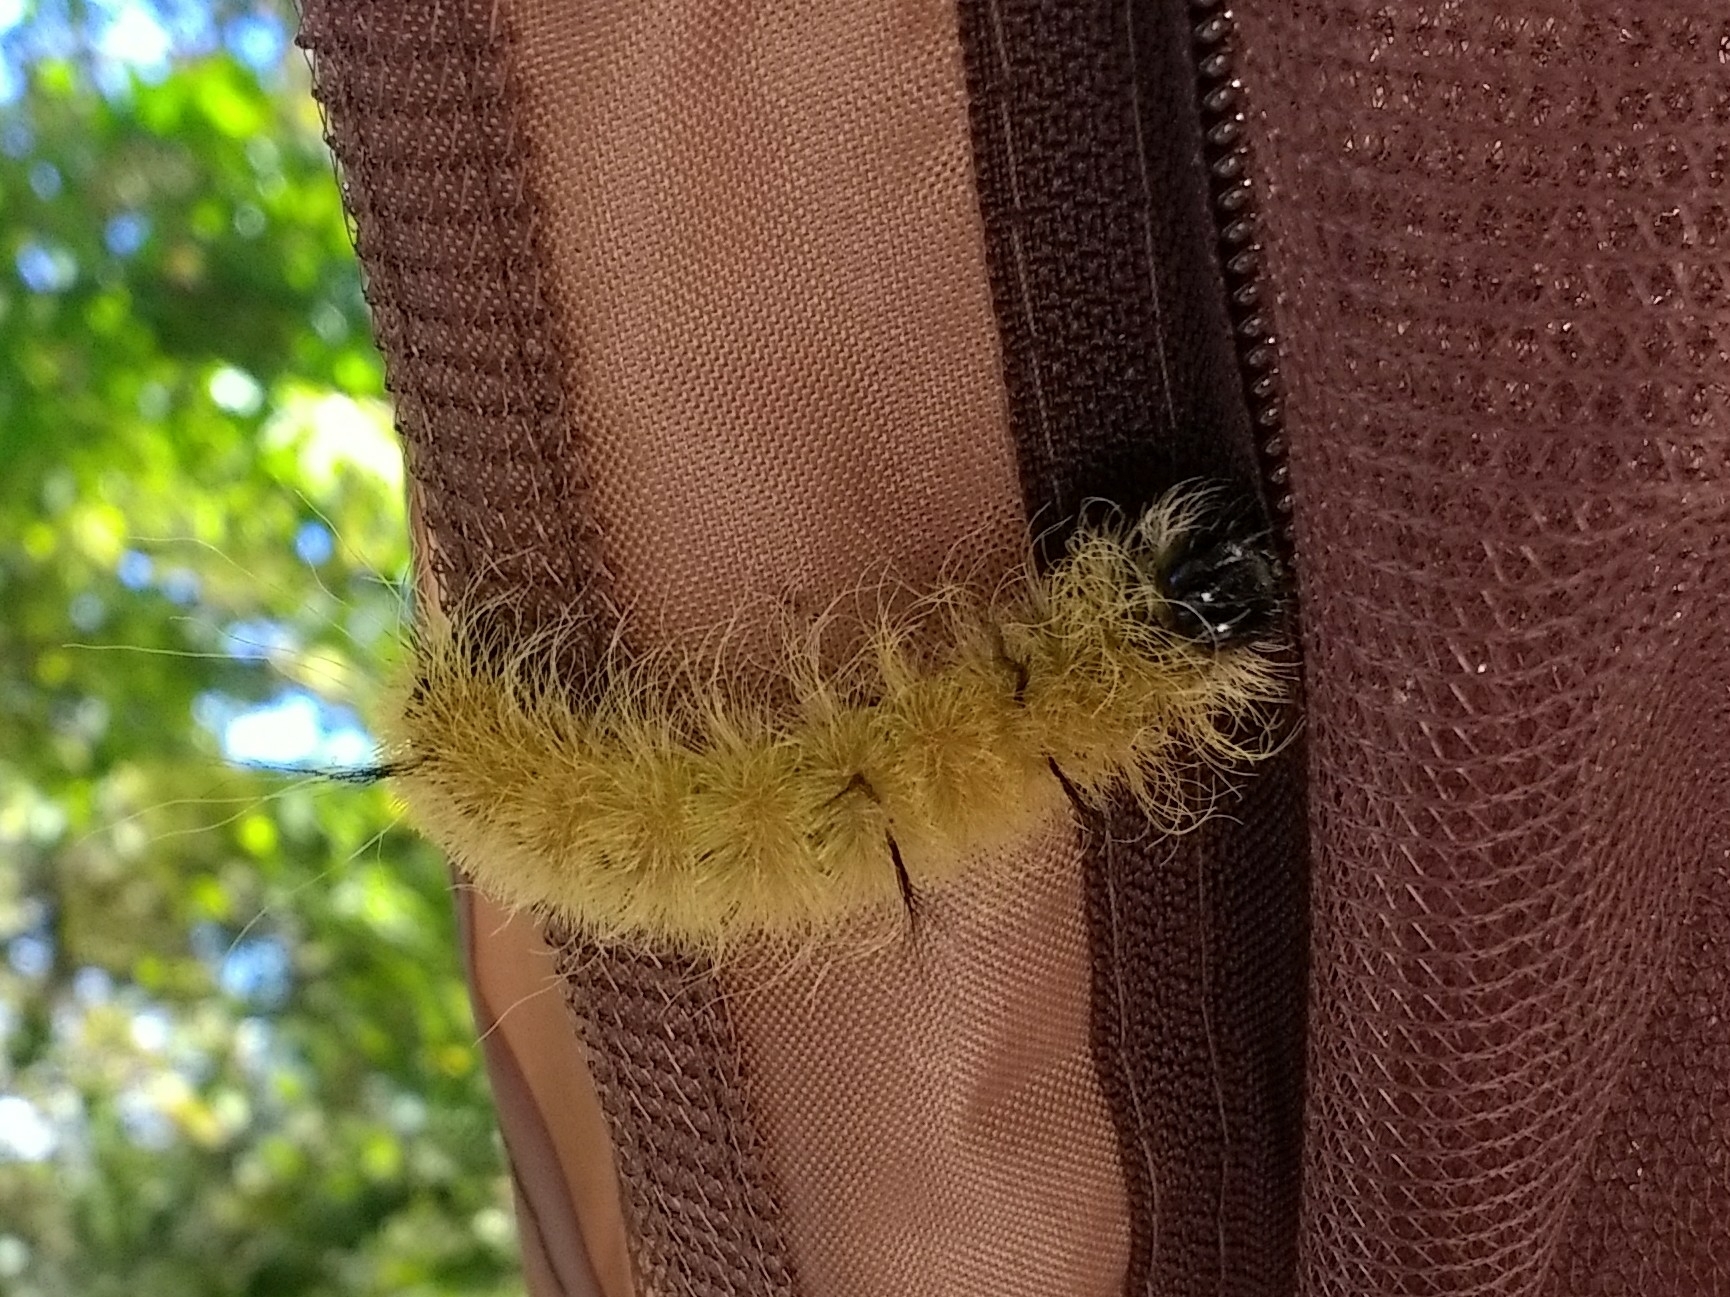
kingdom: Animalia
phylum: Arthropoda
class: Insecta
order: Lepidoptera
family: Noctuidae
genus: Acronicta
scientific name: Acronicta americana
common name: American dagger
